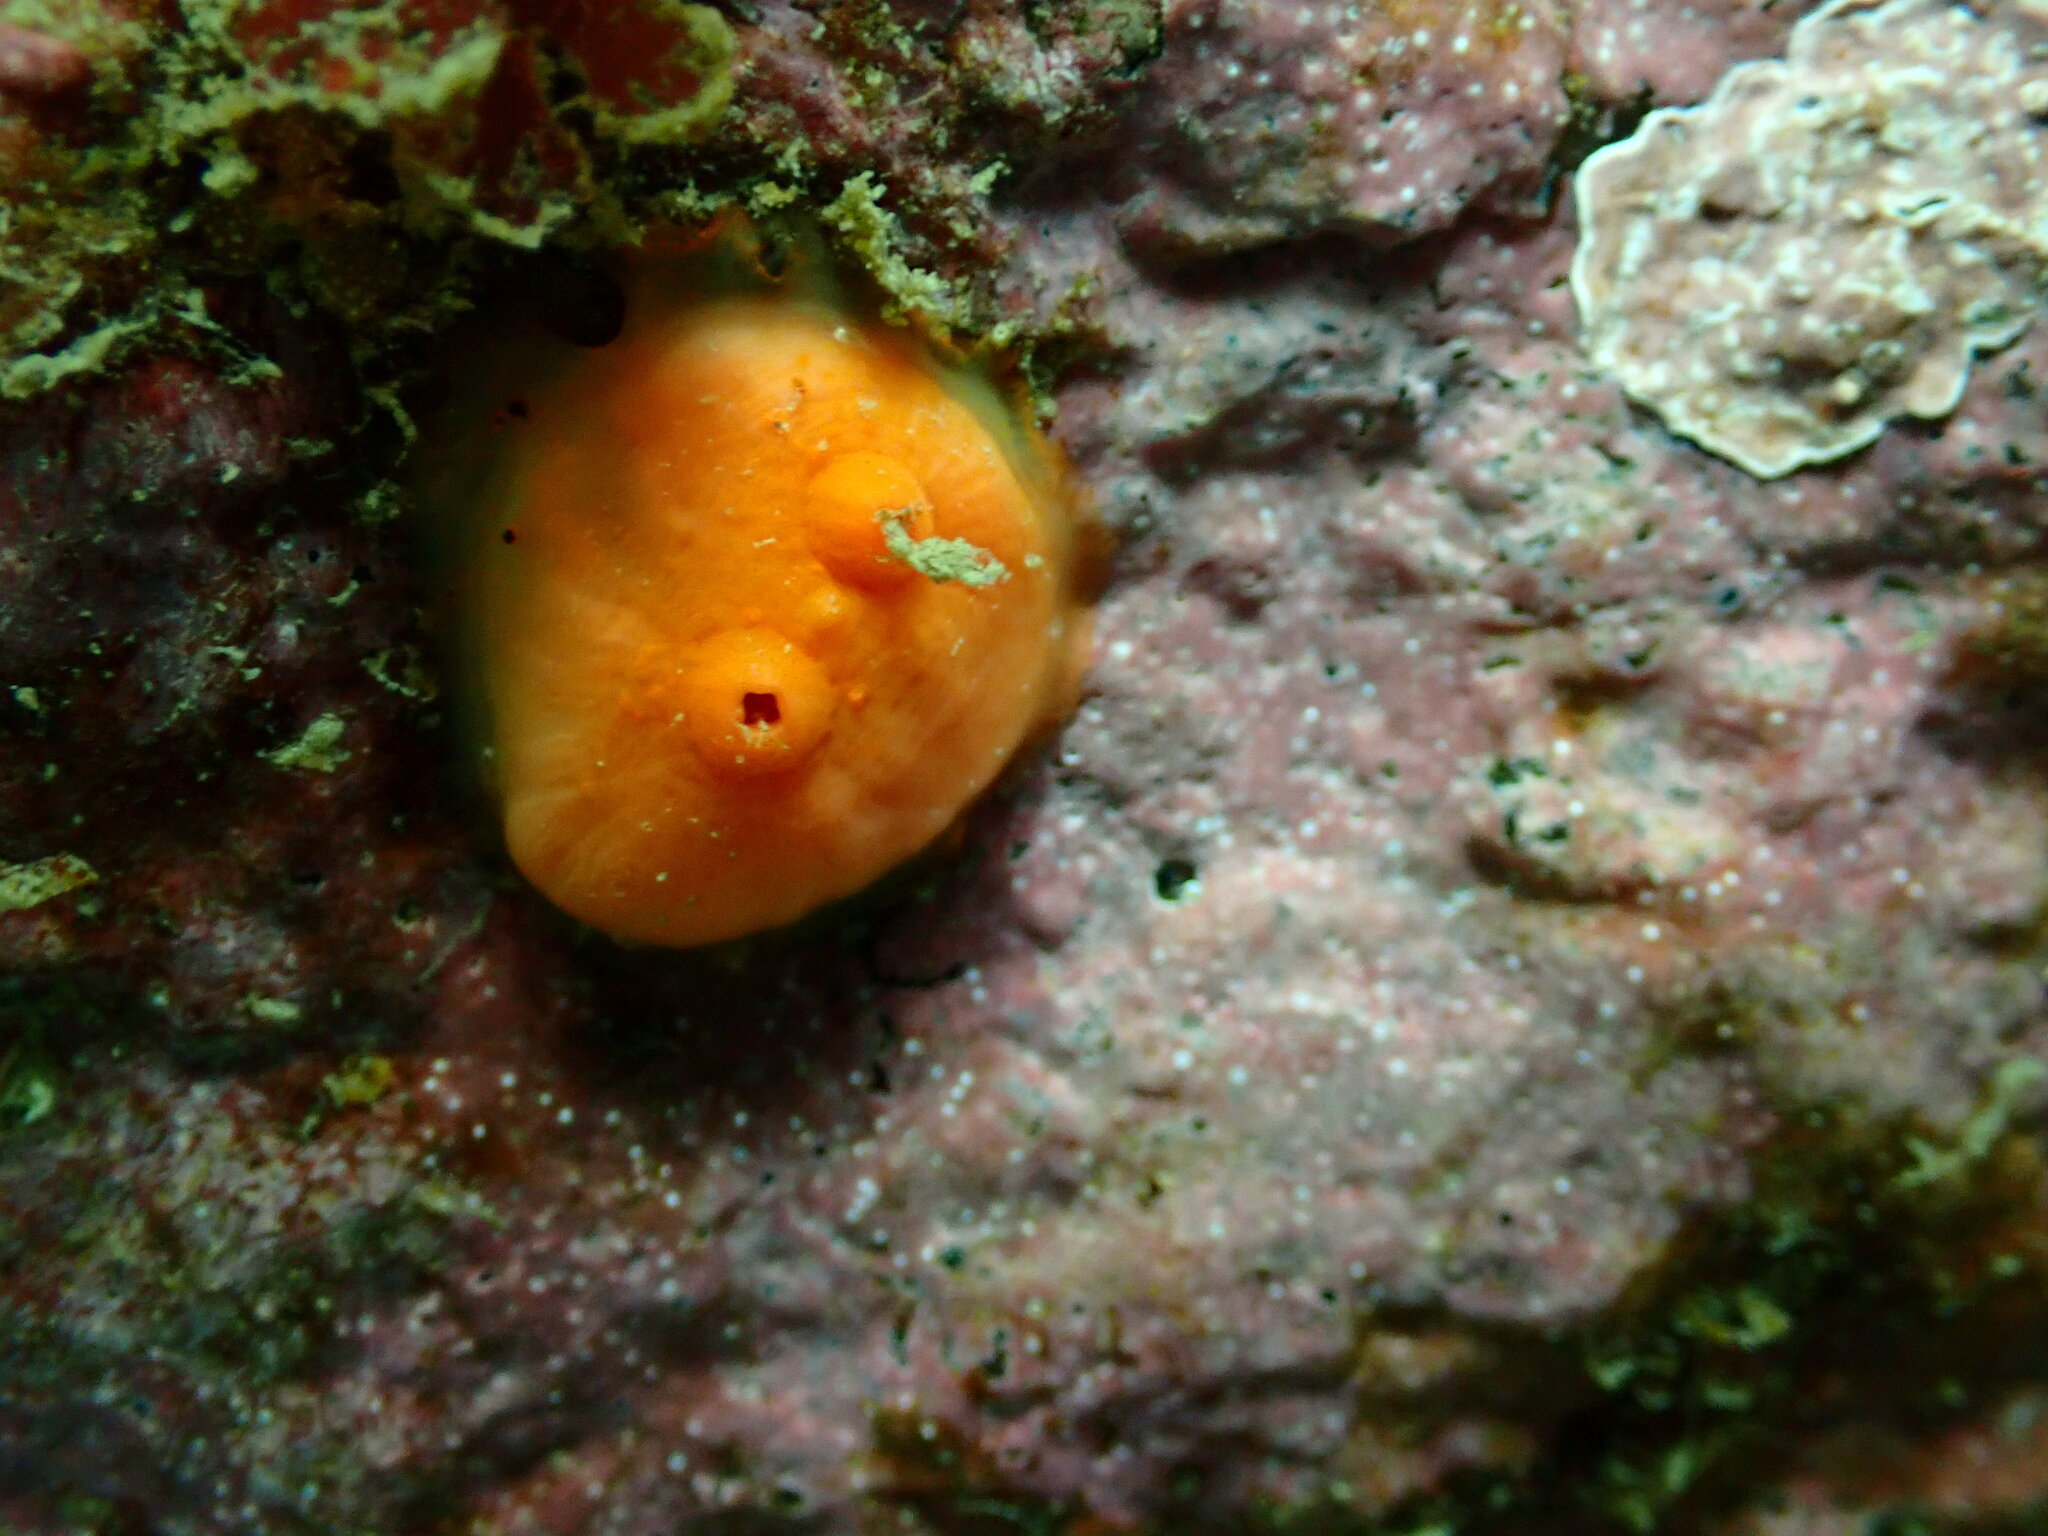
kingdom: Animalia
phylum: Chordata
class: Ascidiacea
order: Stolidobranchia
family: Styelidae
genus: Cnemidocarpa
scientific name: Cnemidocarpa finmarkiensis
